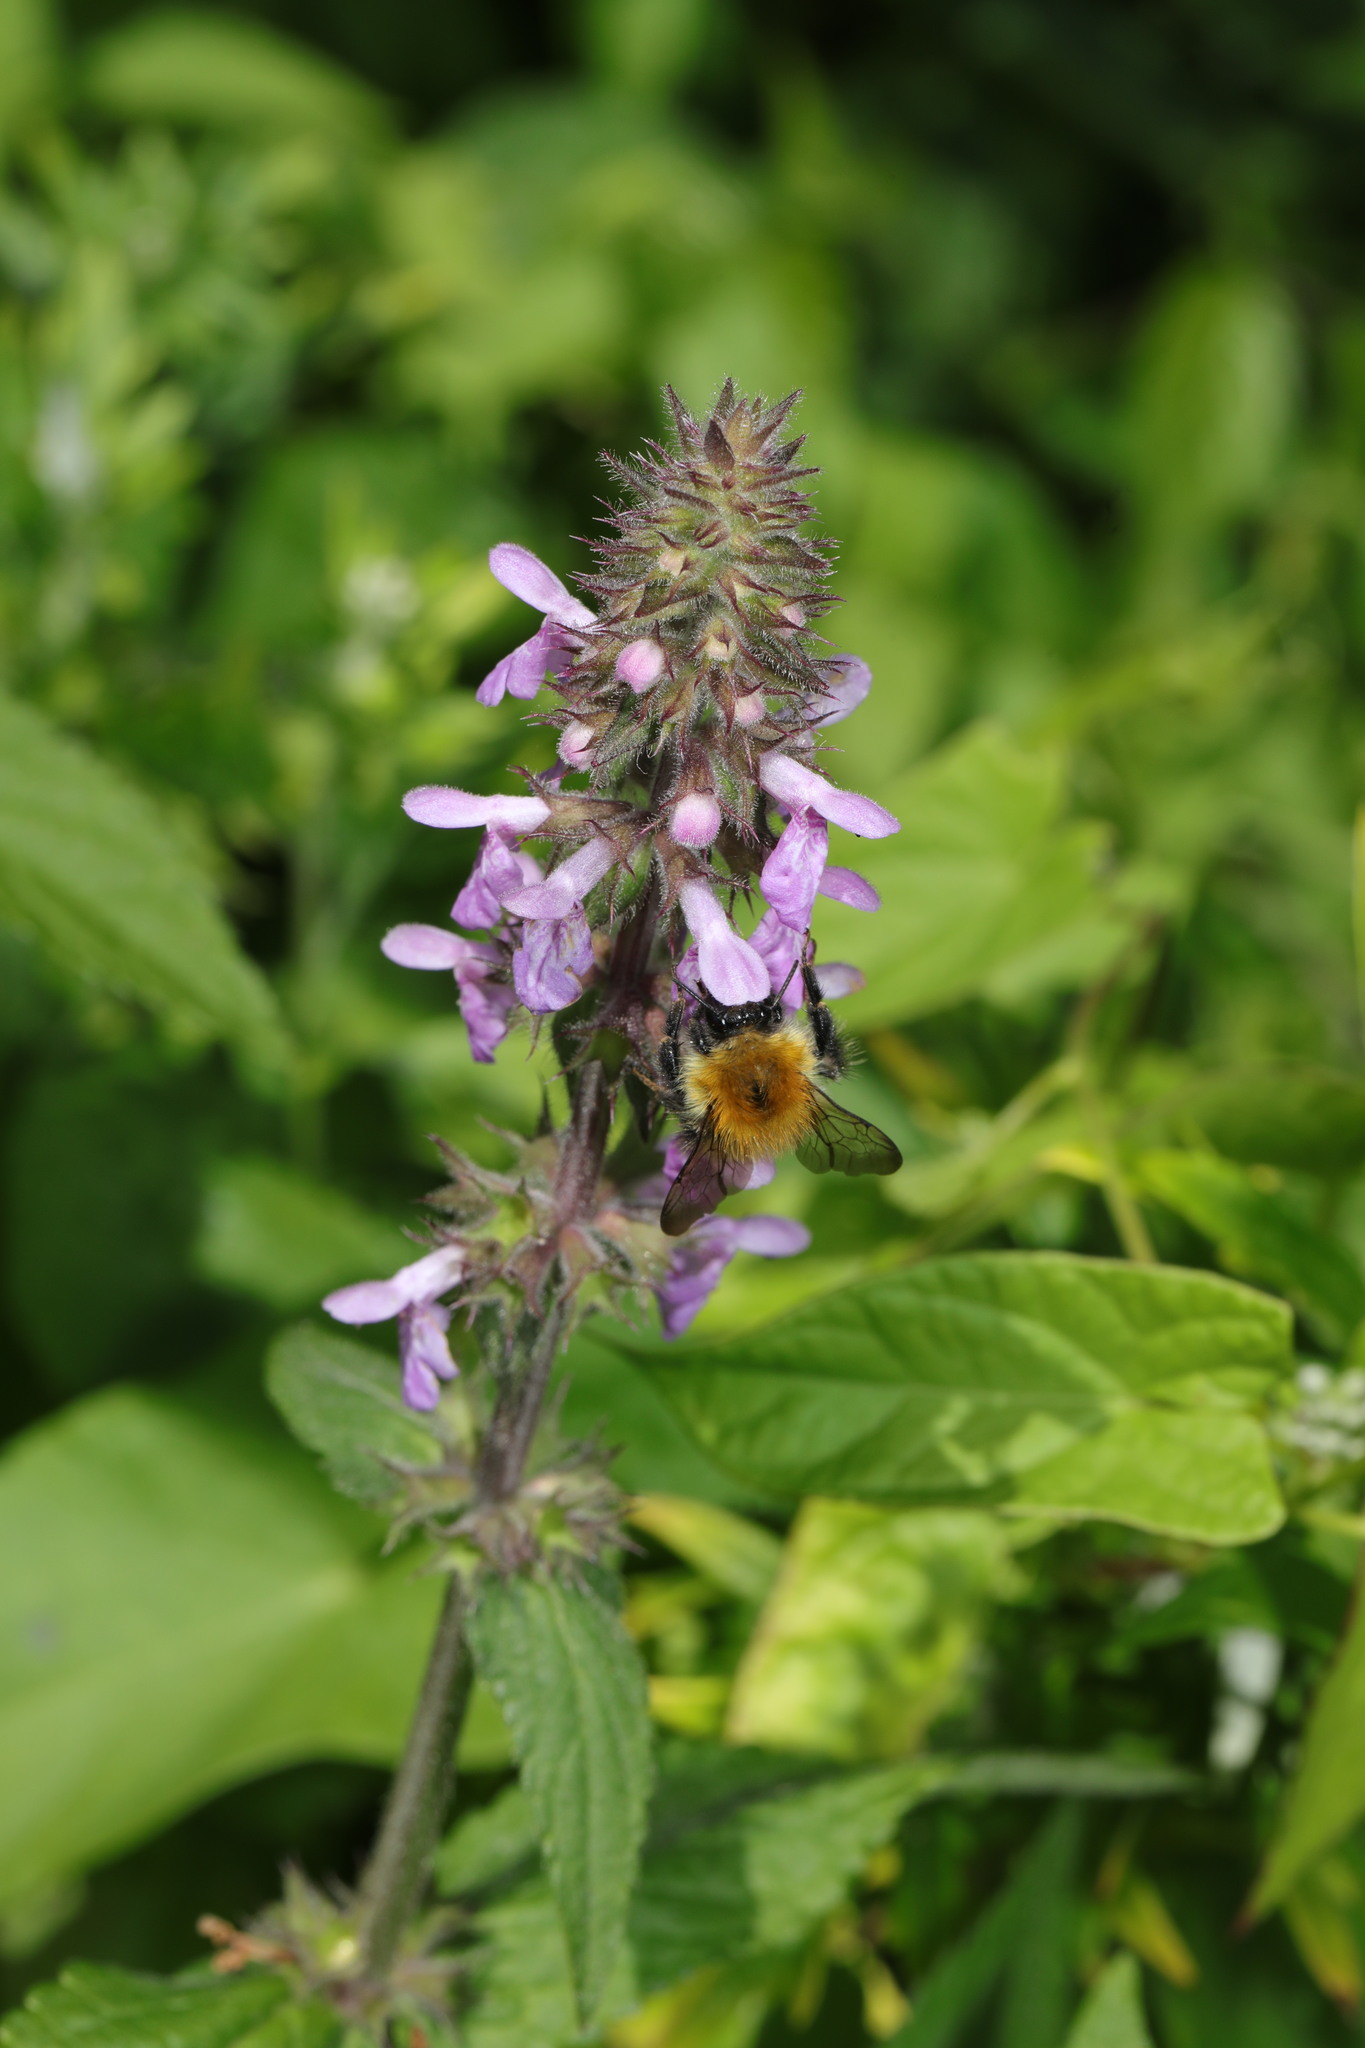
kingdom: Plantae
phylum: Tracheophyta
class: Magnoliopsida
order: Lamiales
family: Lamiaceae
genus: Stachys
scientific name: Stachys palustris
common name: Marsh woundwort
